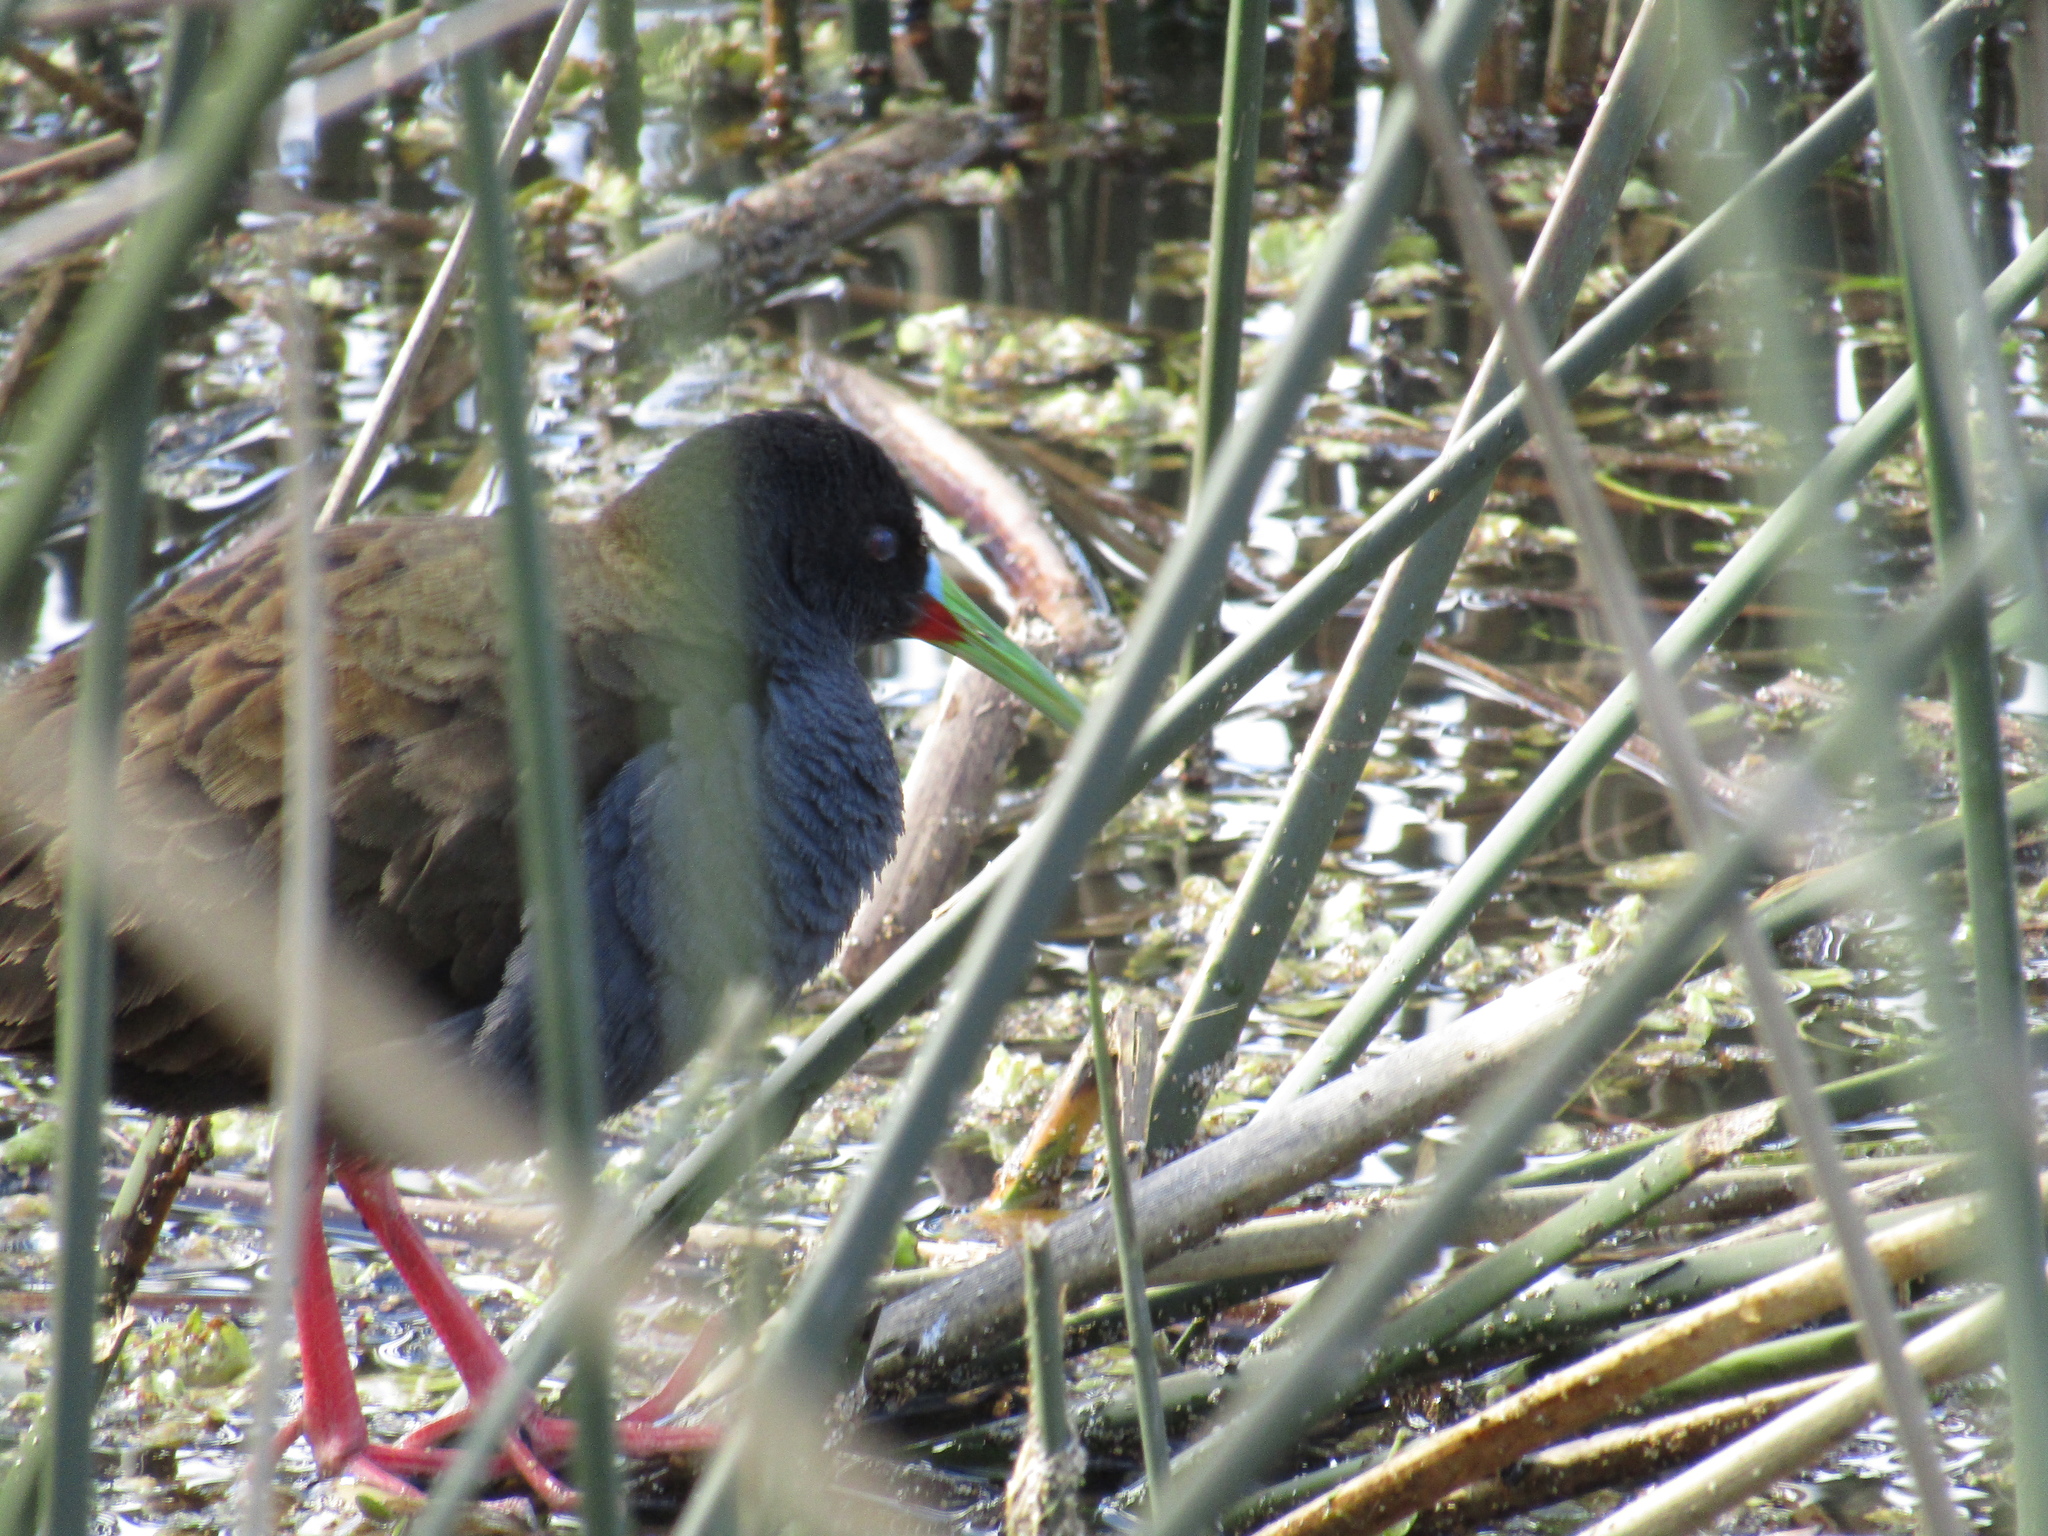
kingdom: Animalia
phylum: Chordata
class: Aves
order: Gruiformes
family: Rallidae
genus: Pardirallus
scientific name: Pardirallus sanguinolentus
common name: Plumbeous rail
